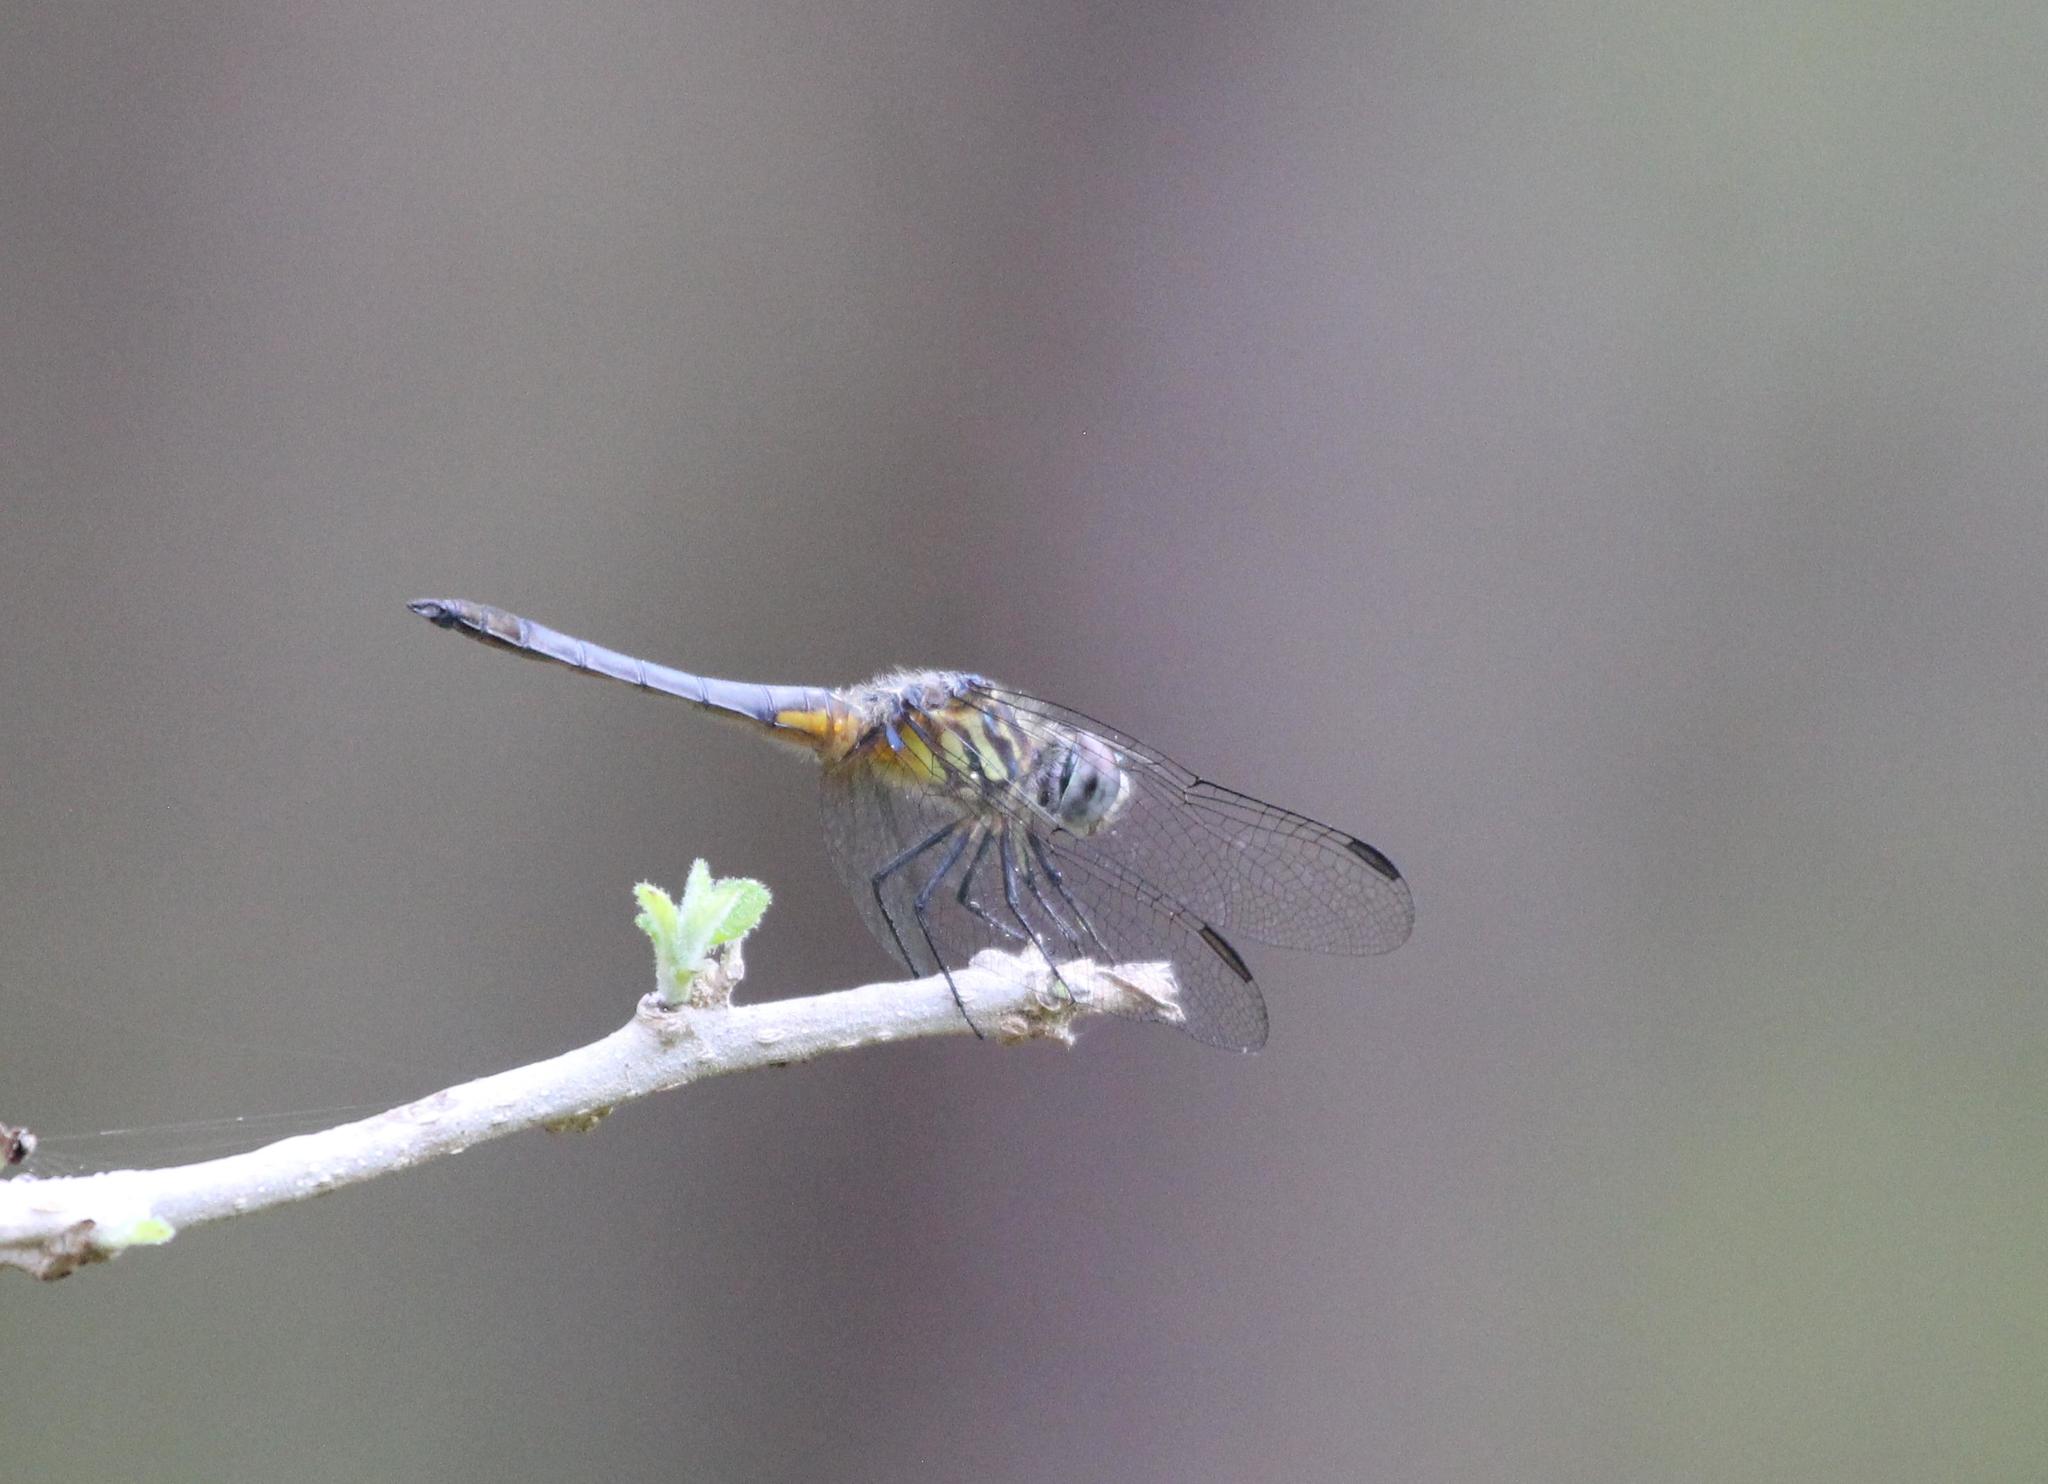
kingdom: Animalia
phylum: Arthropoda
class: Insecta
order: Odonata
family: Libellulidae
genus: Pachydiplax
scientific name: Pachydiplax longipennis
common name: Blue dasher
